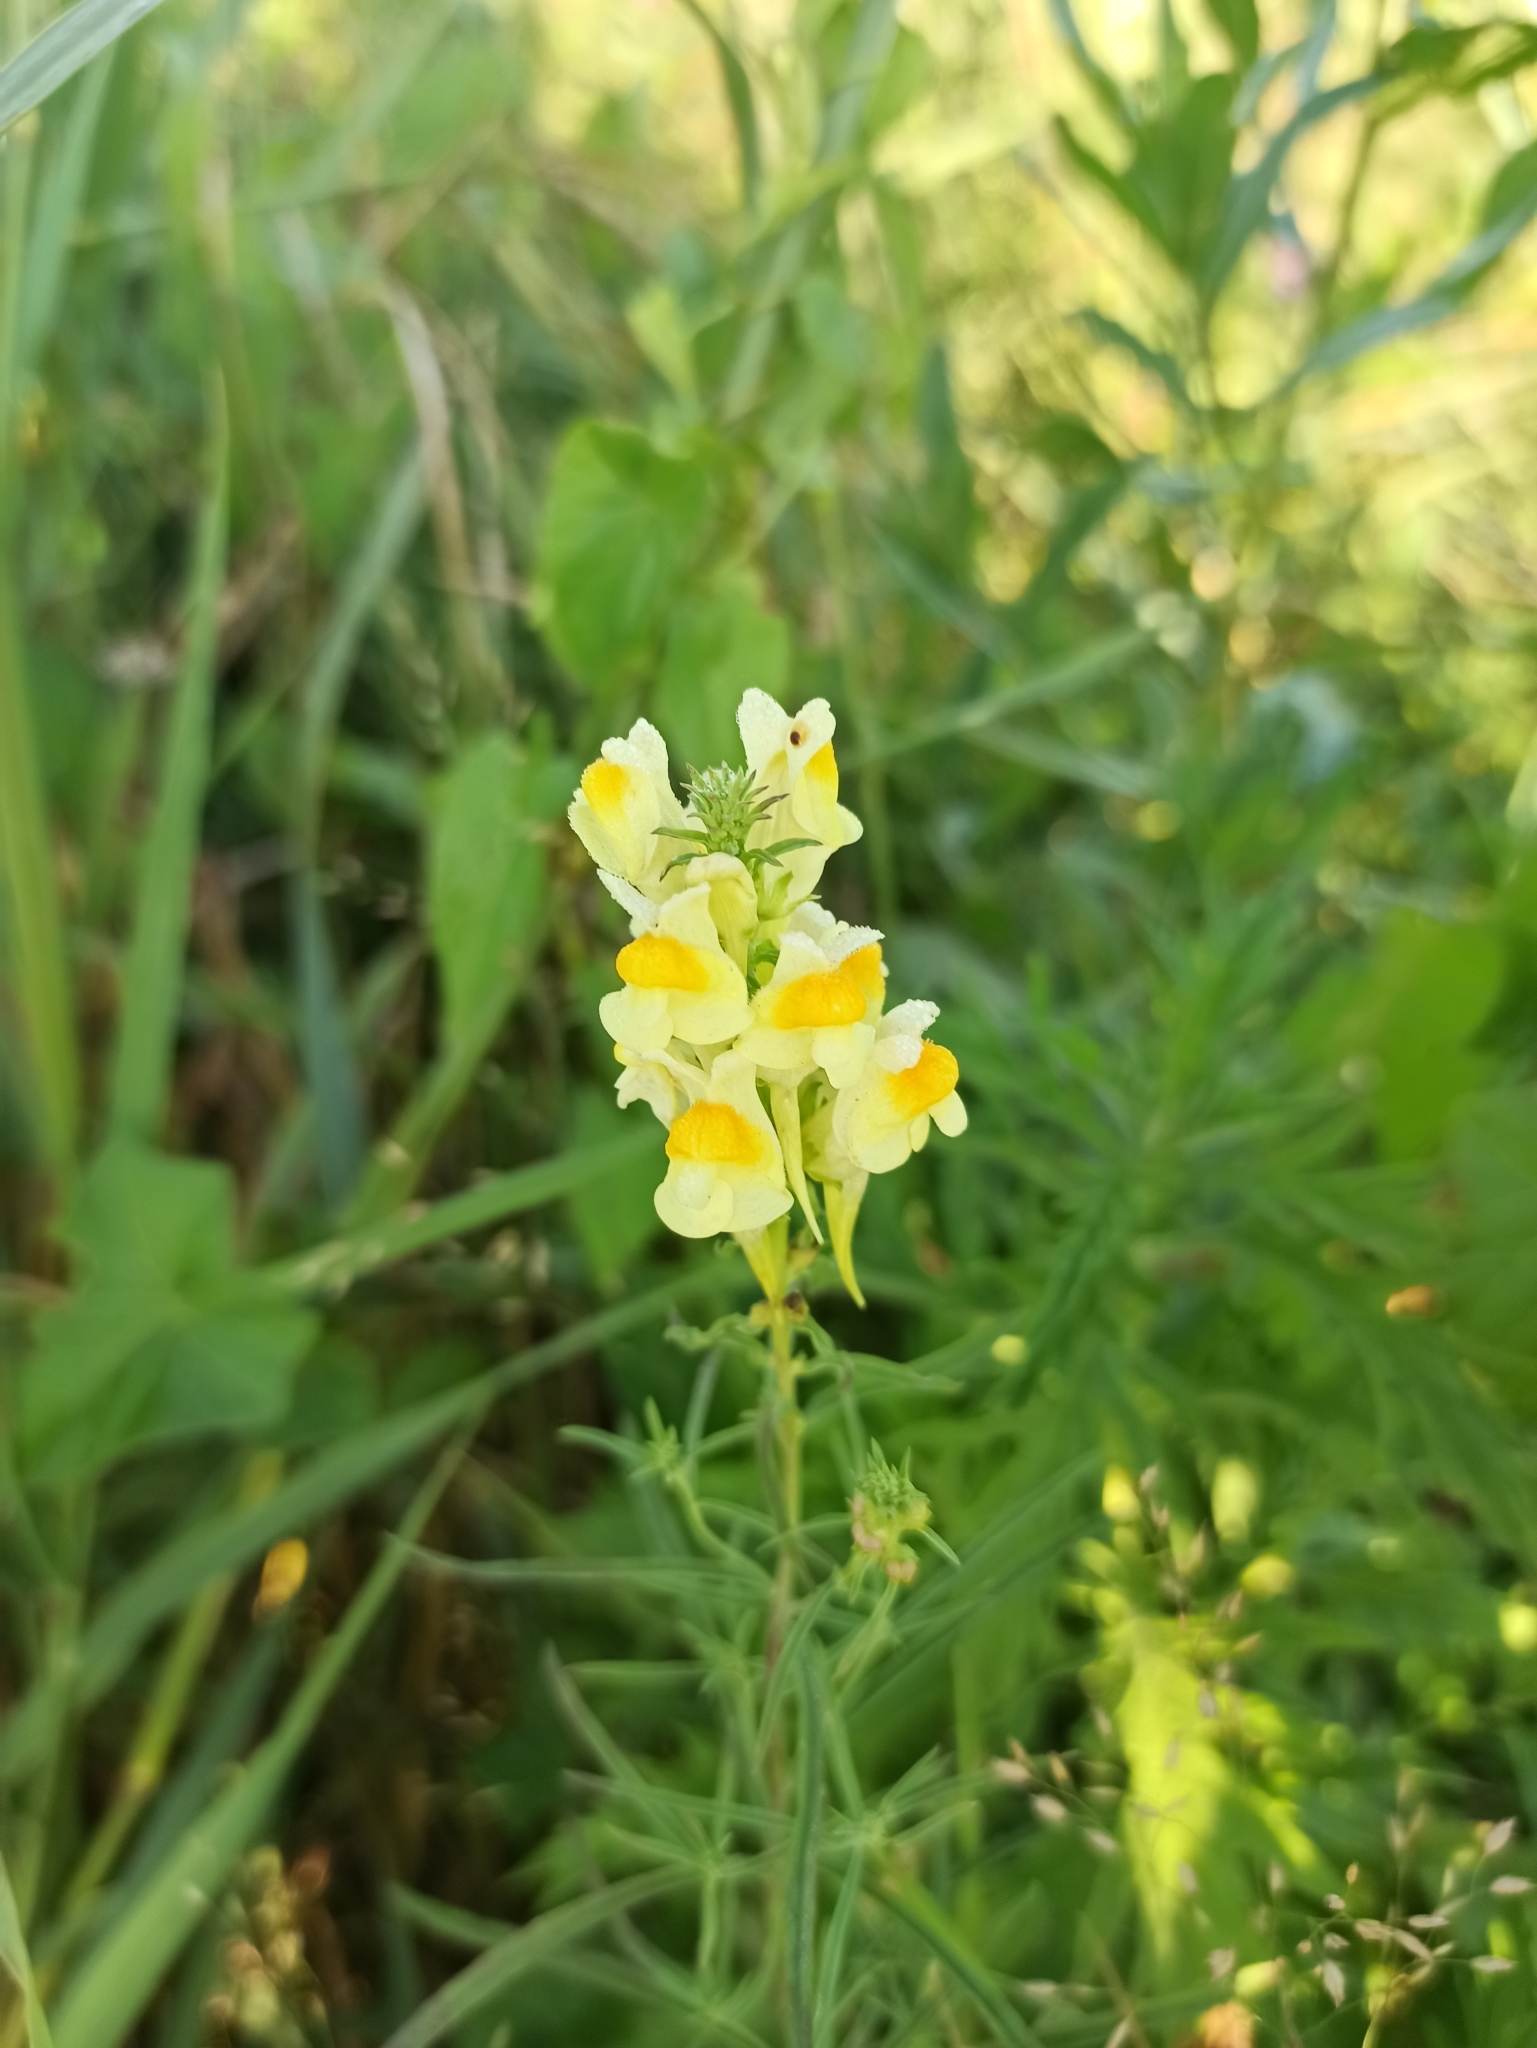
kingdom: Plantae
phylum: Tracheophyta
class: Magnoliopsida
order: Lamiales
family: Plantaginaceae
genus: Linaria
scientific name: Linaria vulgaris
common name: Butter and eggs
